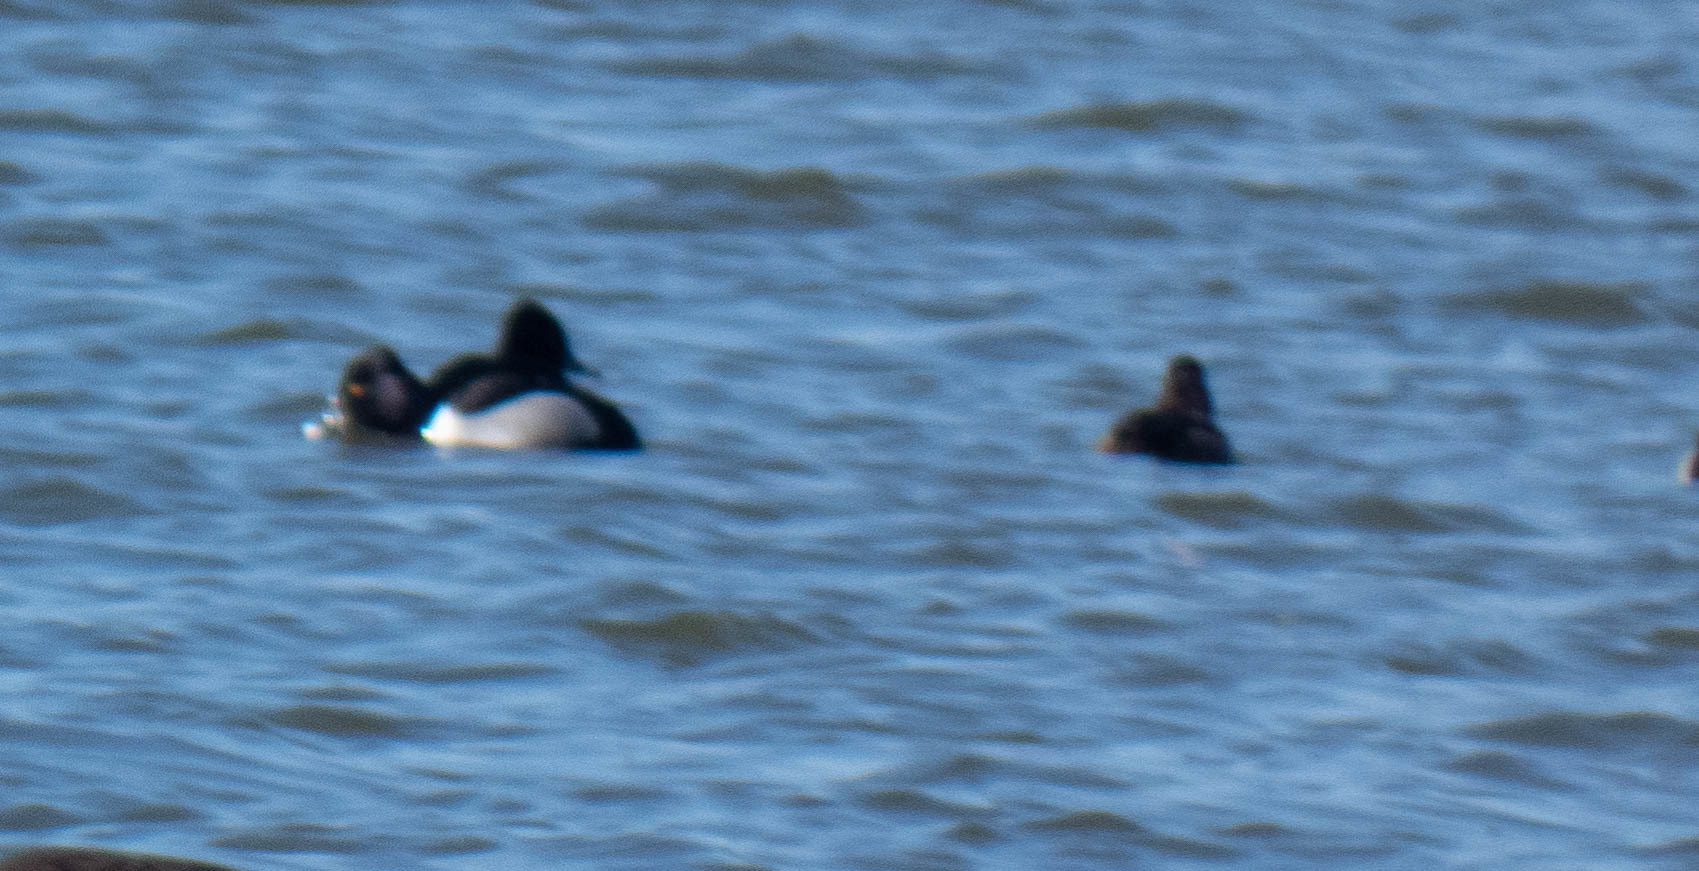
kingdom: Animalia
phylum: Chordata
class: Aves
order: Anseriformes
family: Anatidae
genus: Aythya
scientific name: Aythya collaris
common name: Ring-necked duck
